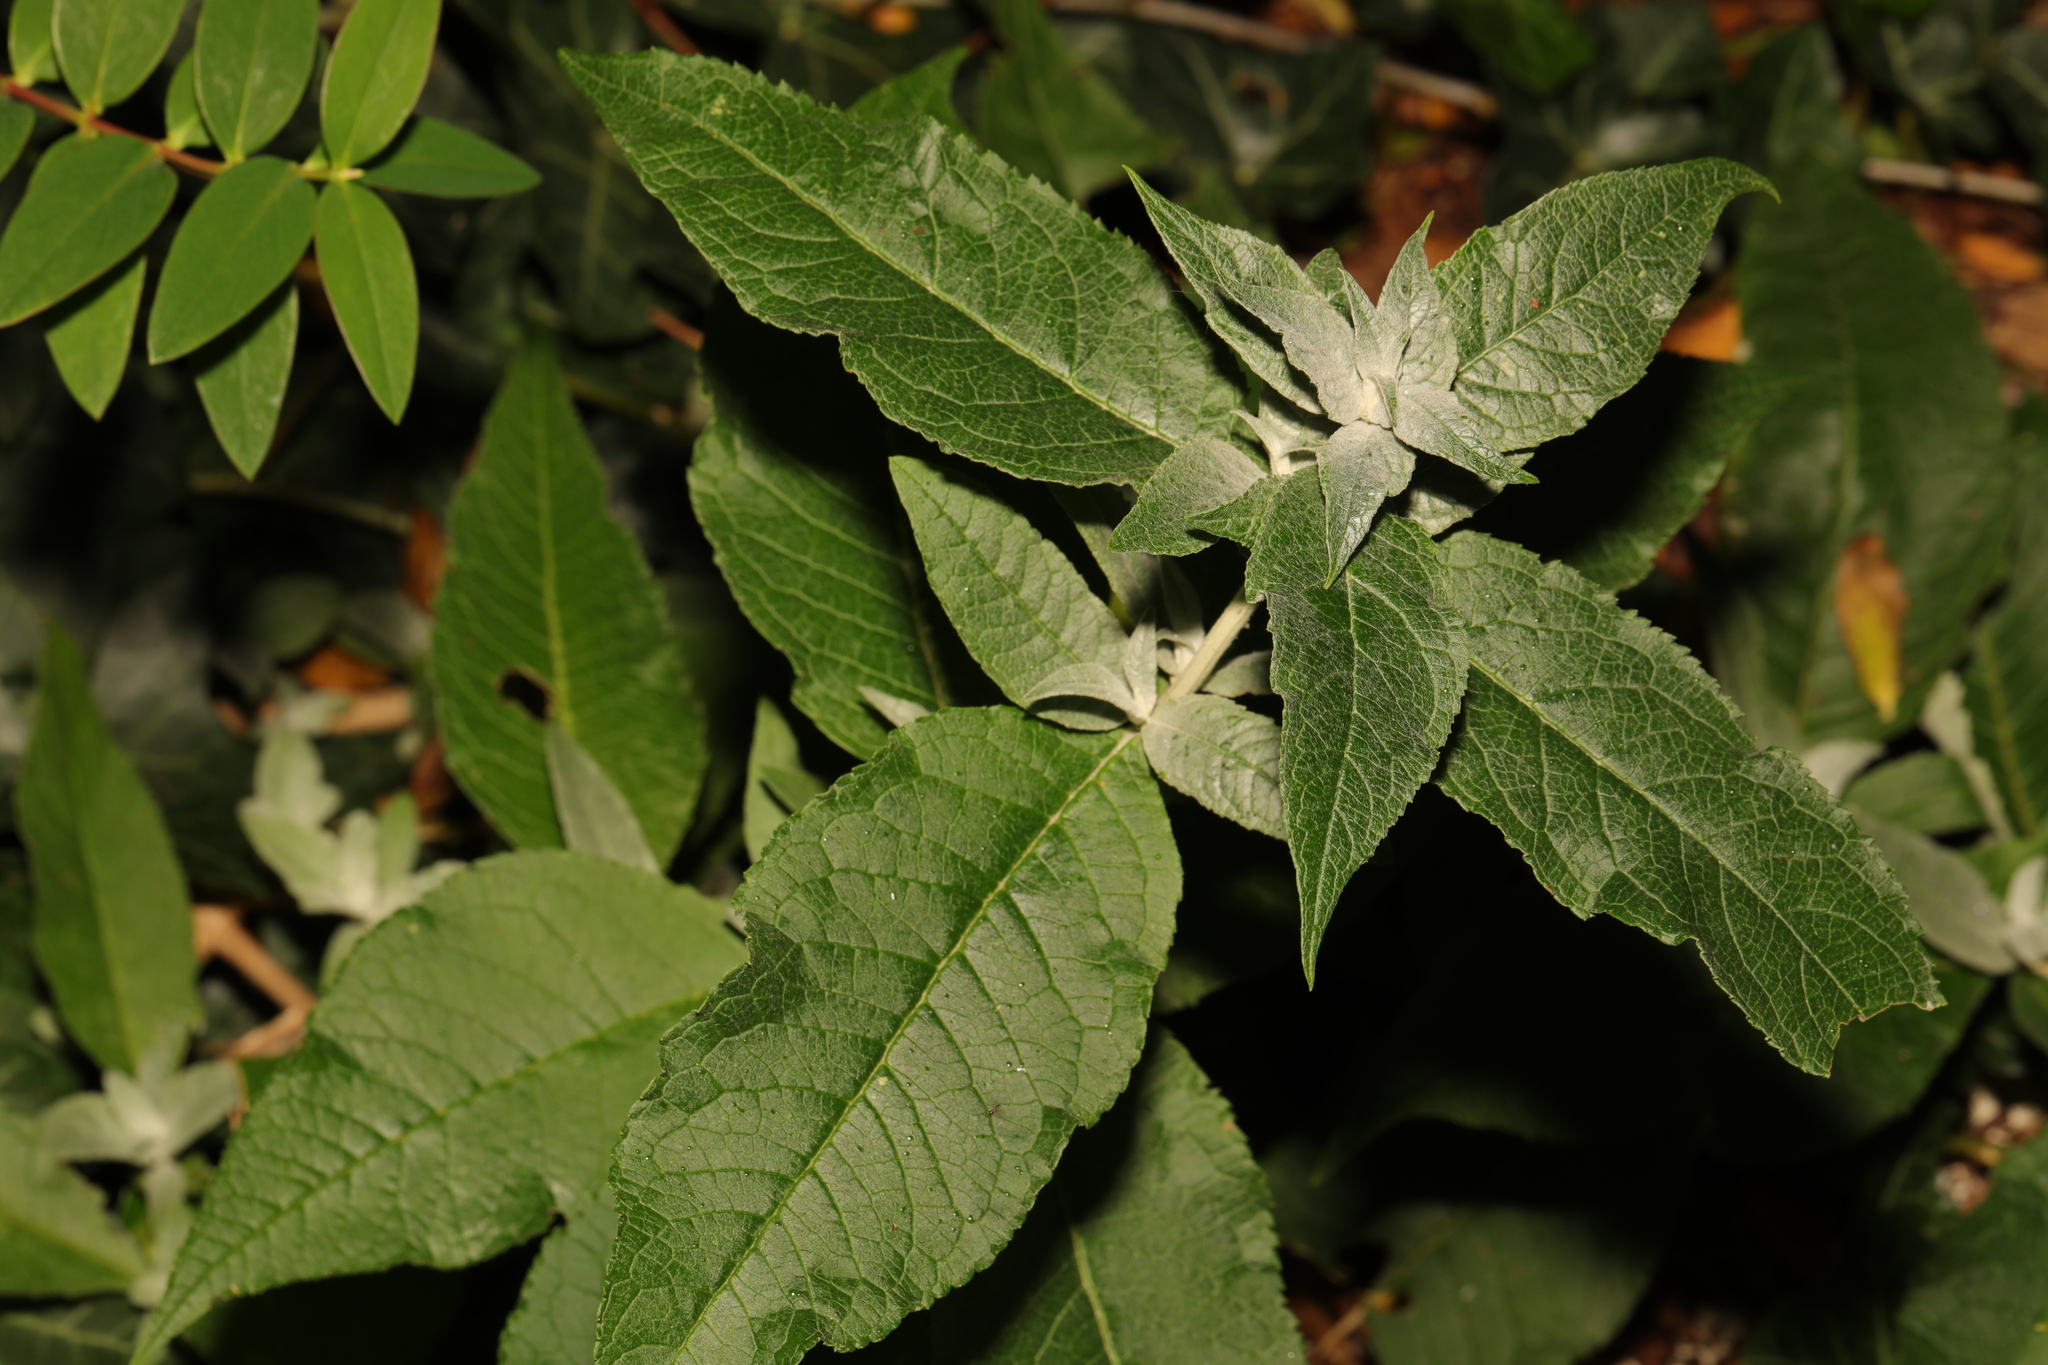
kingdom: Plantae
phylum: Tracheophyta
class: Magnoliopsida
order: Lamiales
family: Scrophulariaceae
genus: Buddleja
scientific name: Buddleja davidii
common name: Butterfly-bush
